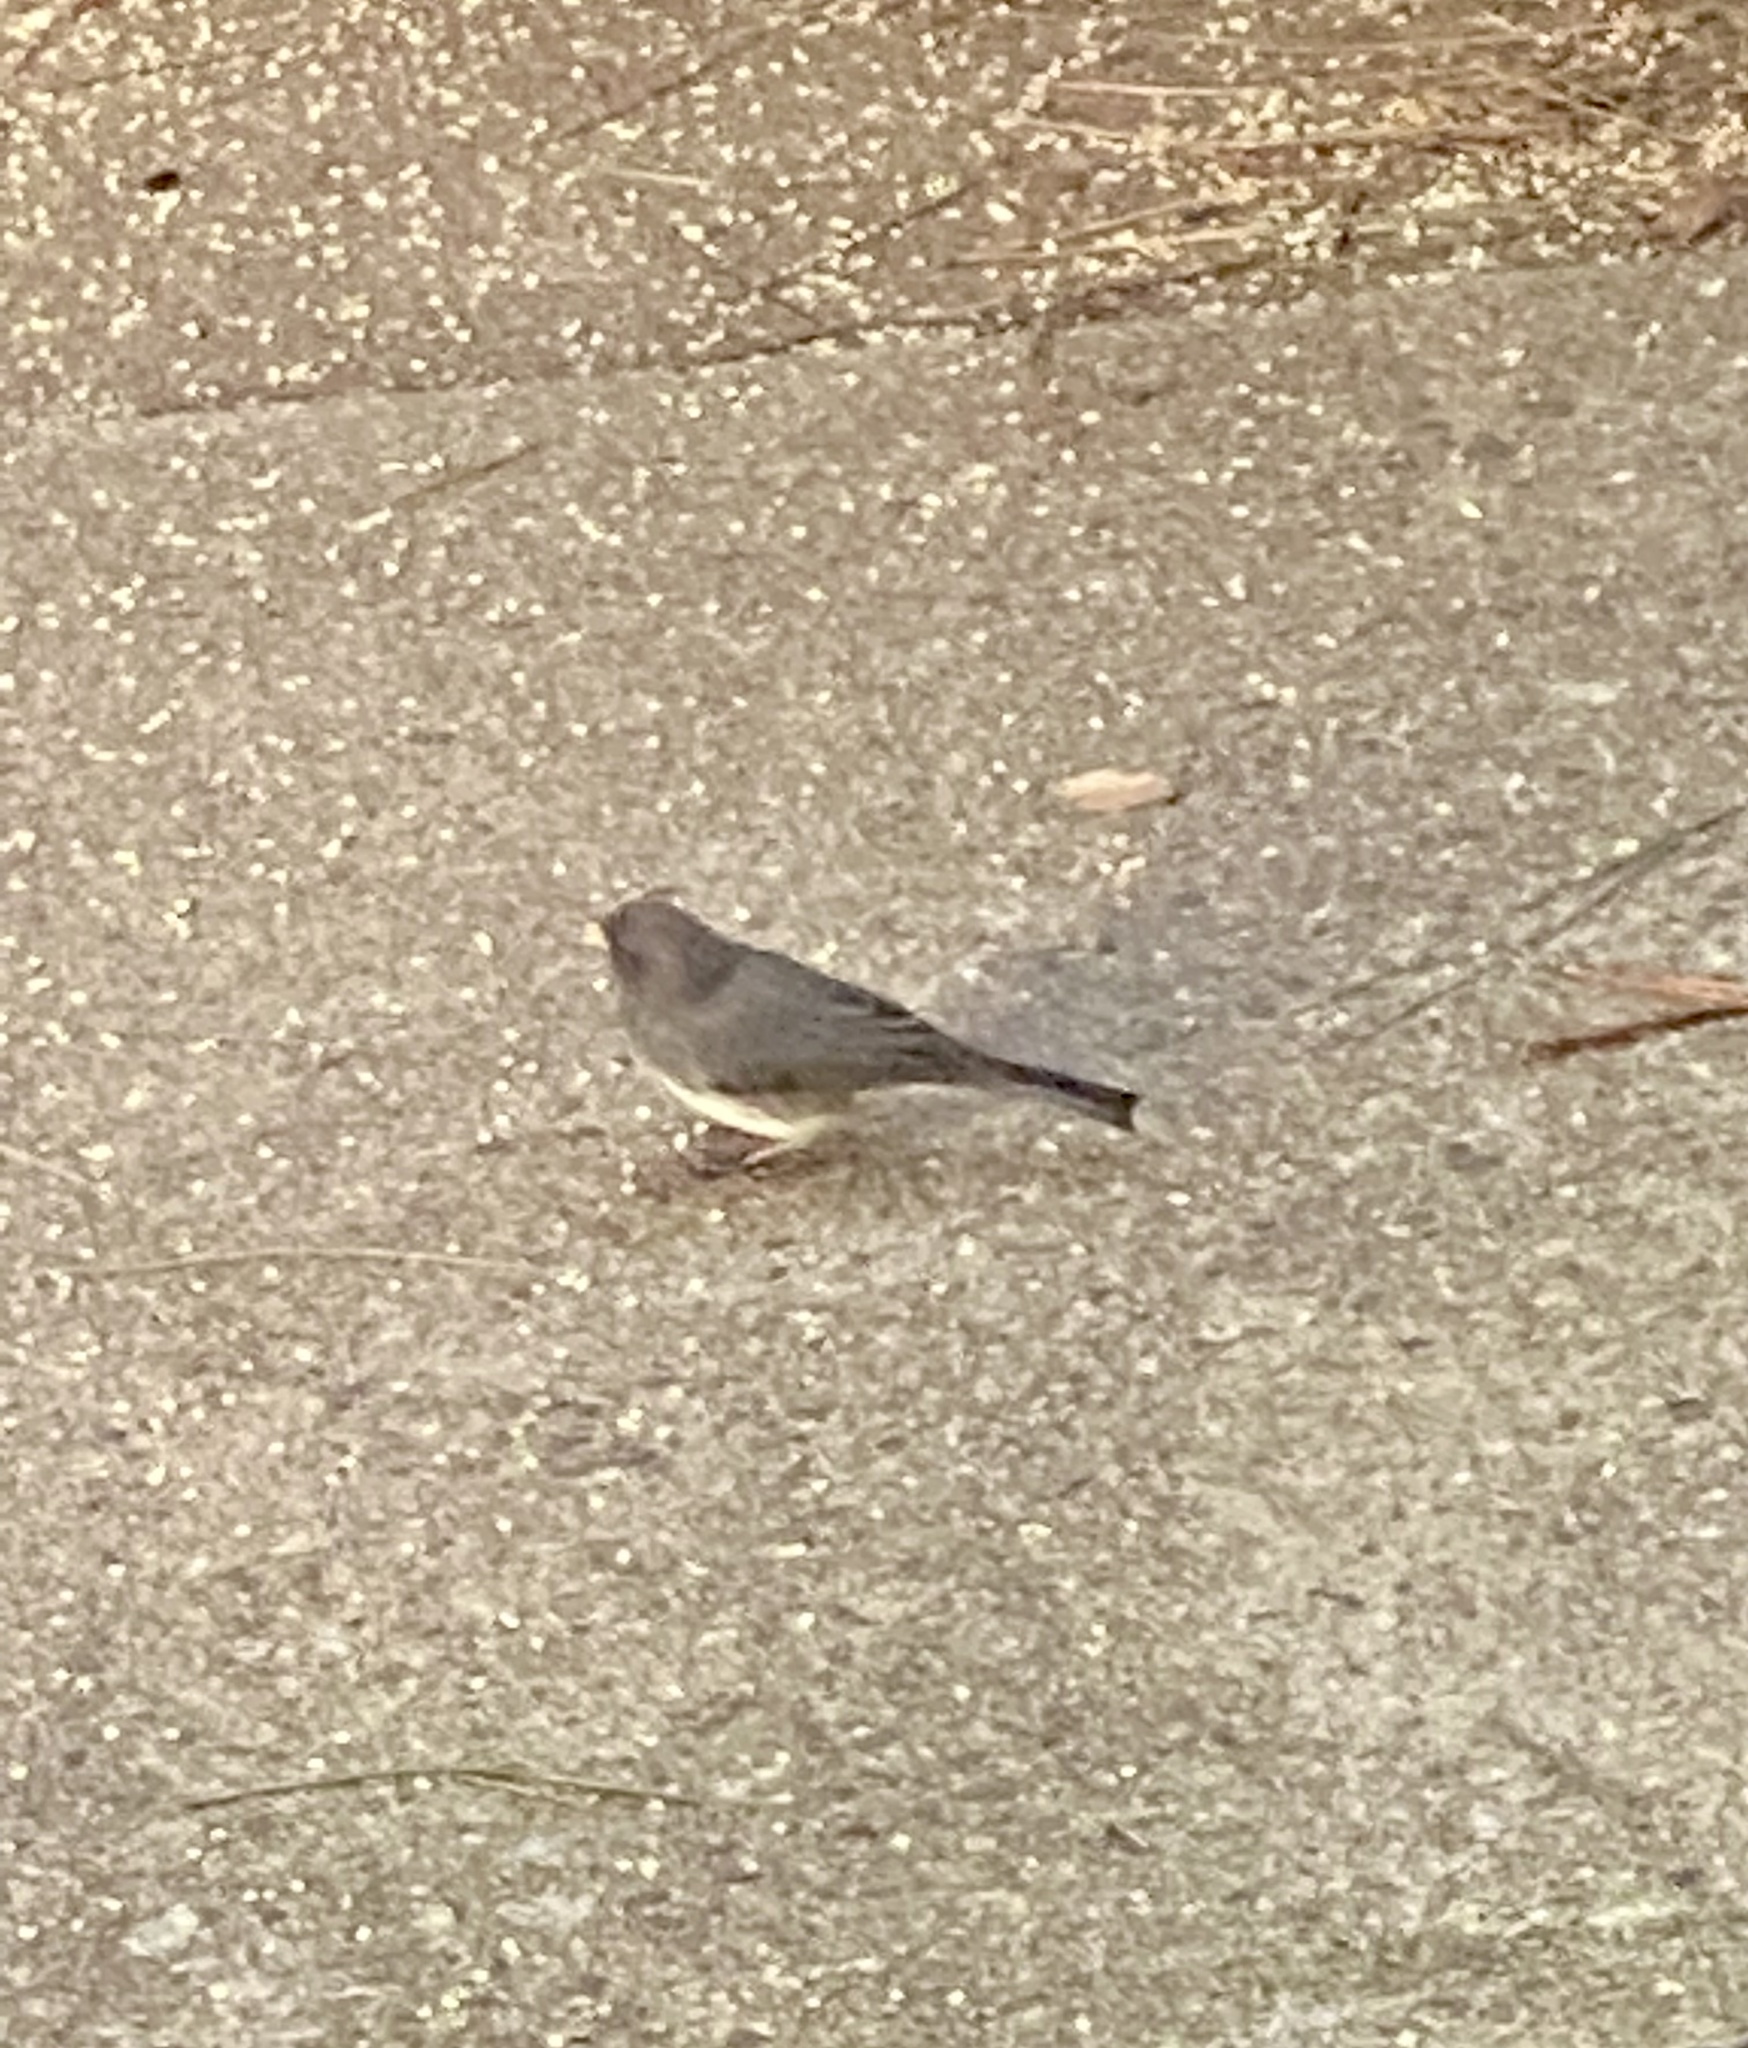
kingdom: Animalia
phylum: Chordata
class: Aves
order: Passeriformes
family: Passerellidae
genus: Junco
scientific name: Junco hyemalis
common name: Dark-eyed junco
